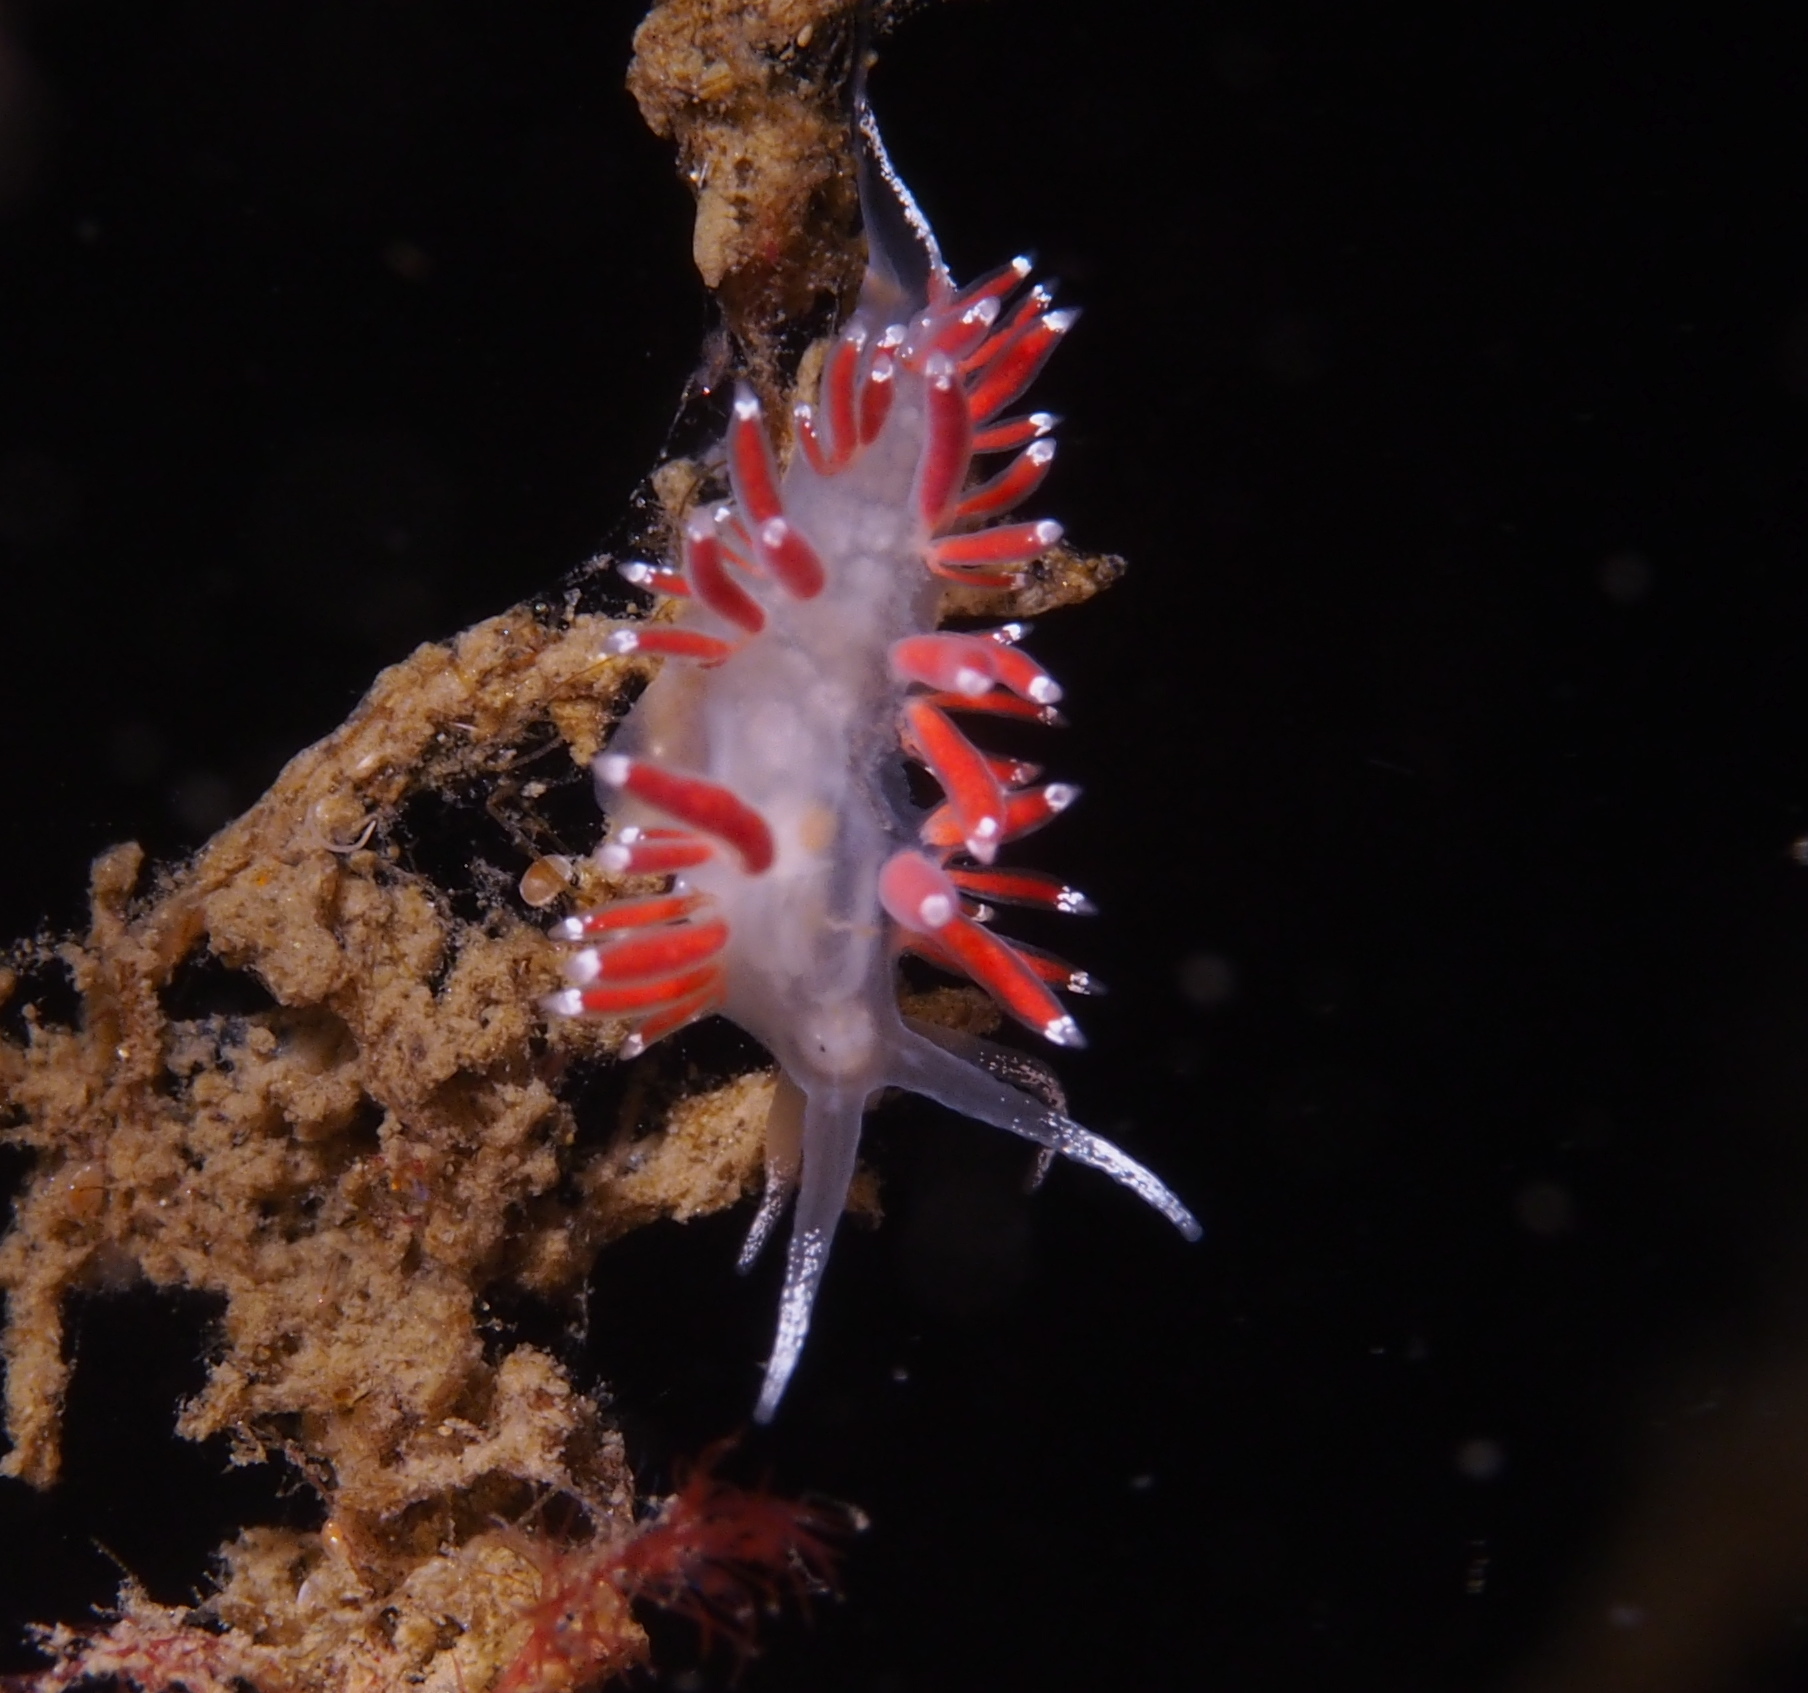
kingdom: Animalia
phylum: Mollusca
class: Gastropoda
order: Nudibranchia
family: Coryphellidae
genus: Coryphella
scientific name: Coryphella gracilis
